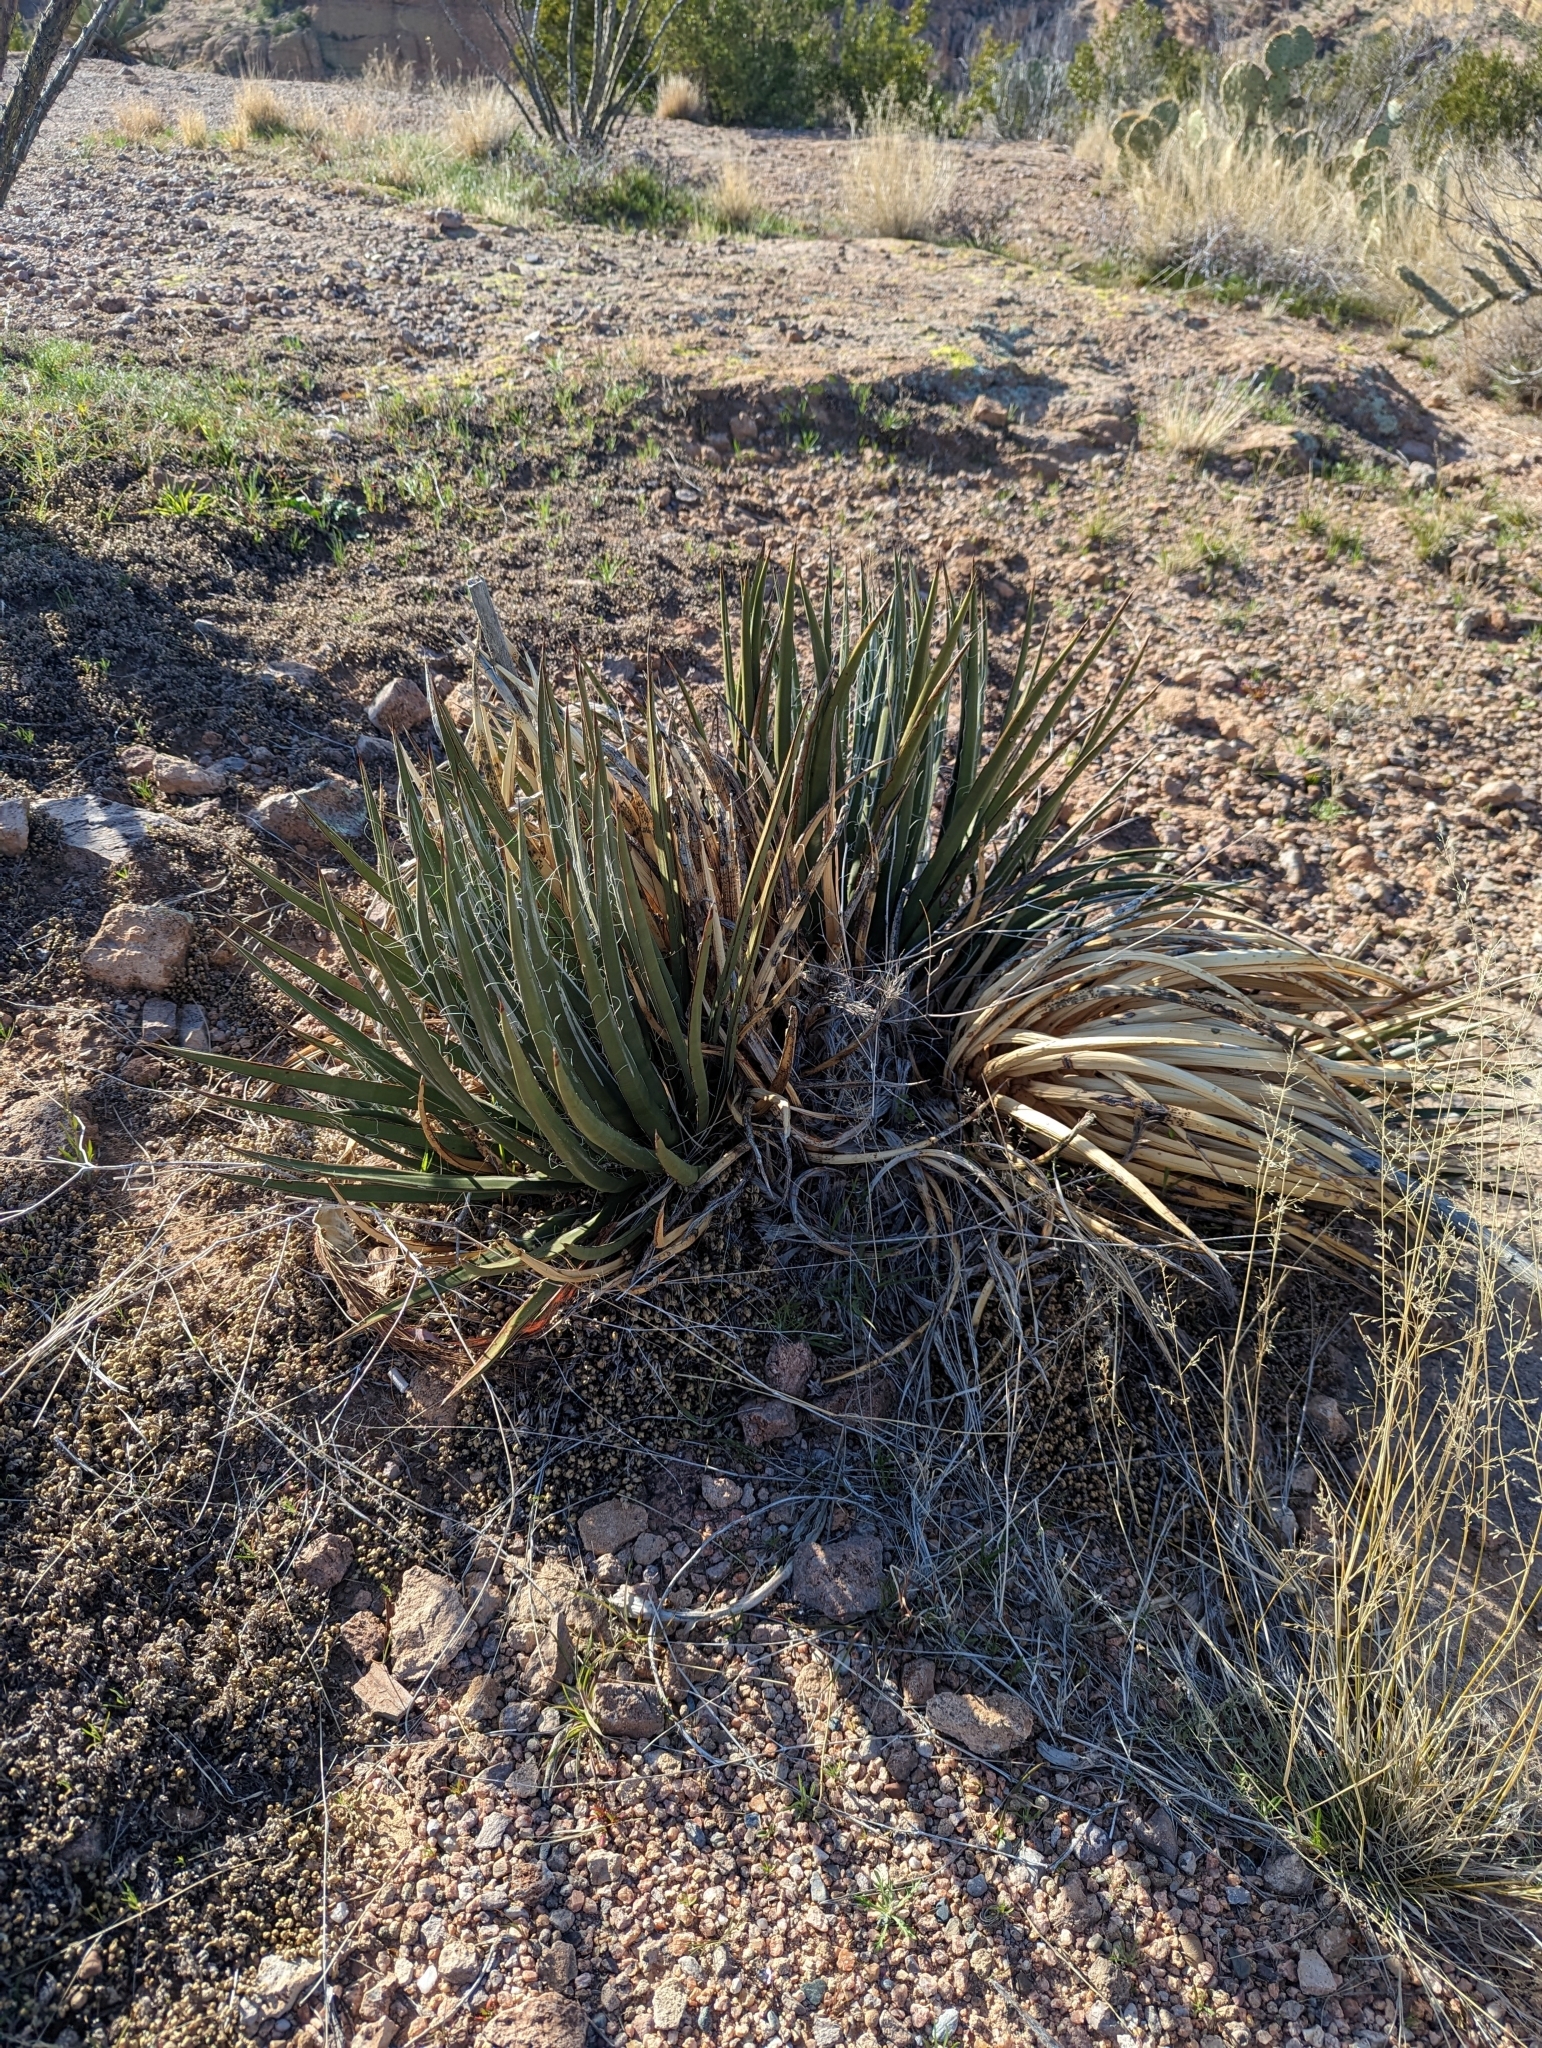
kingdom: Plantae
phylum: Tracheophyta
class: Liliopsida
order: Asparagales
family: Asparagaceae
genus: Yucca
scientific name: Yucca baccata
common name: Banana yucca
